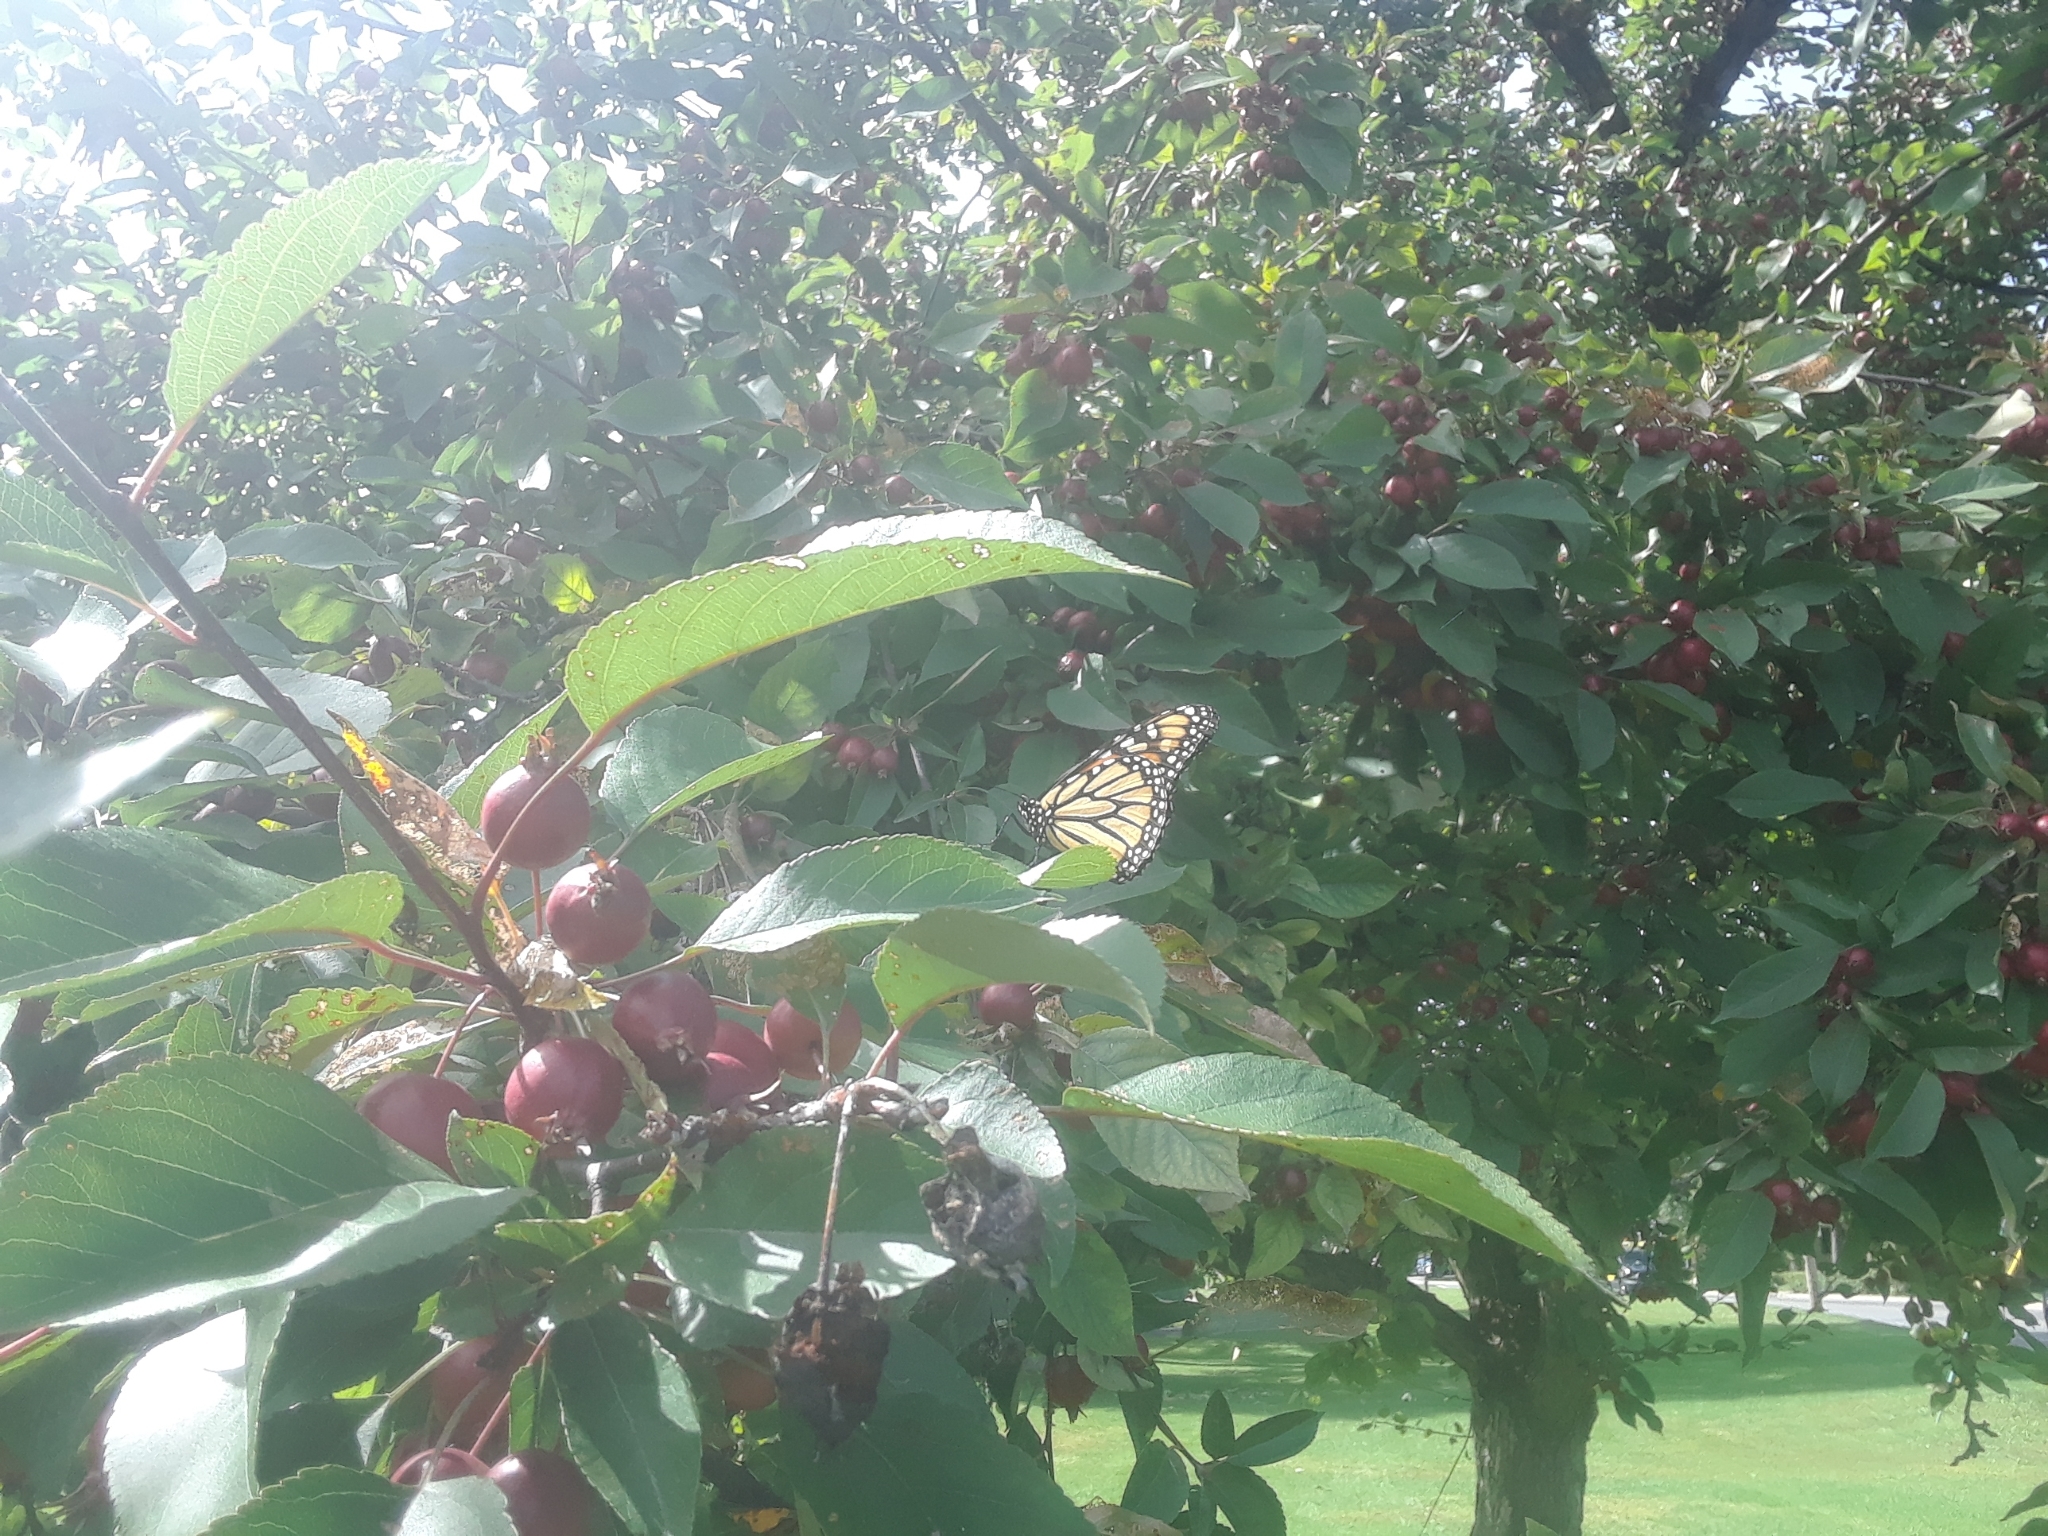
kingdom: Animalia
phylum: Arthropoda
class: Insecta
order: Lepidoptera
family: Nymphalidae
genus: Danaus
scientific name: Danaus plexippus
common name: Monarch
